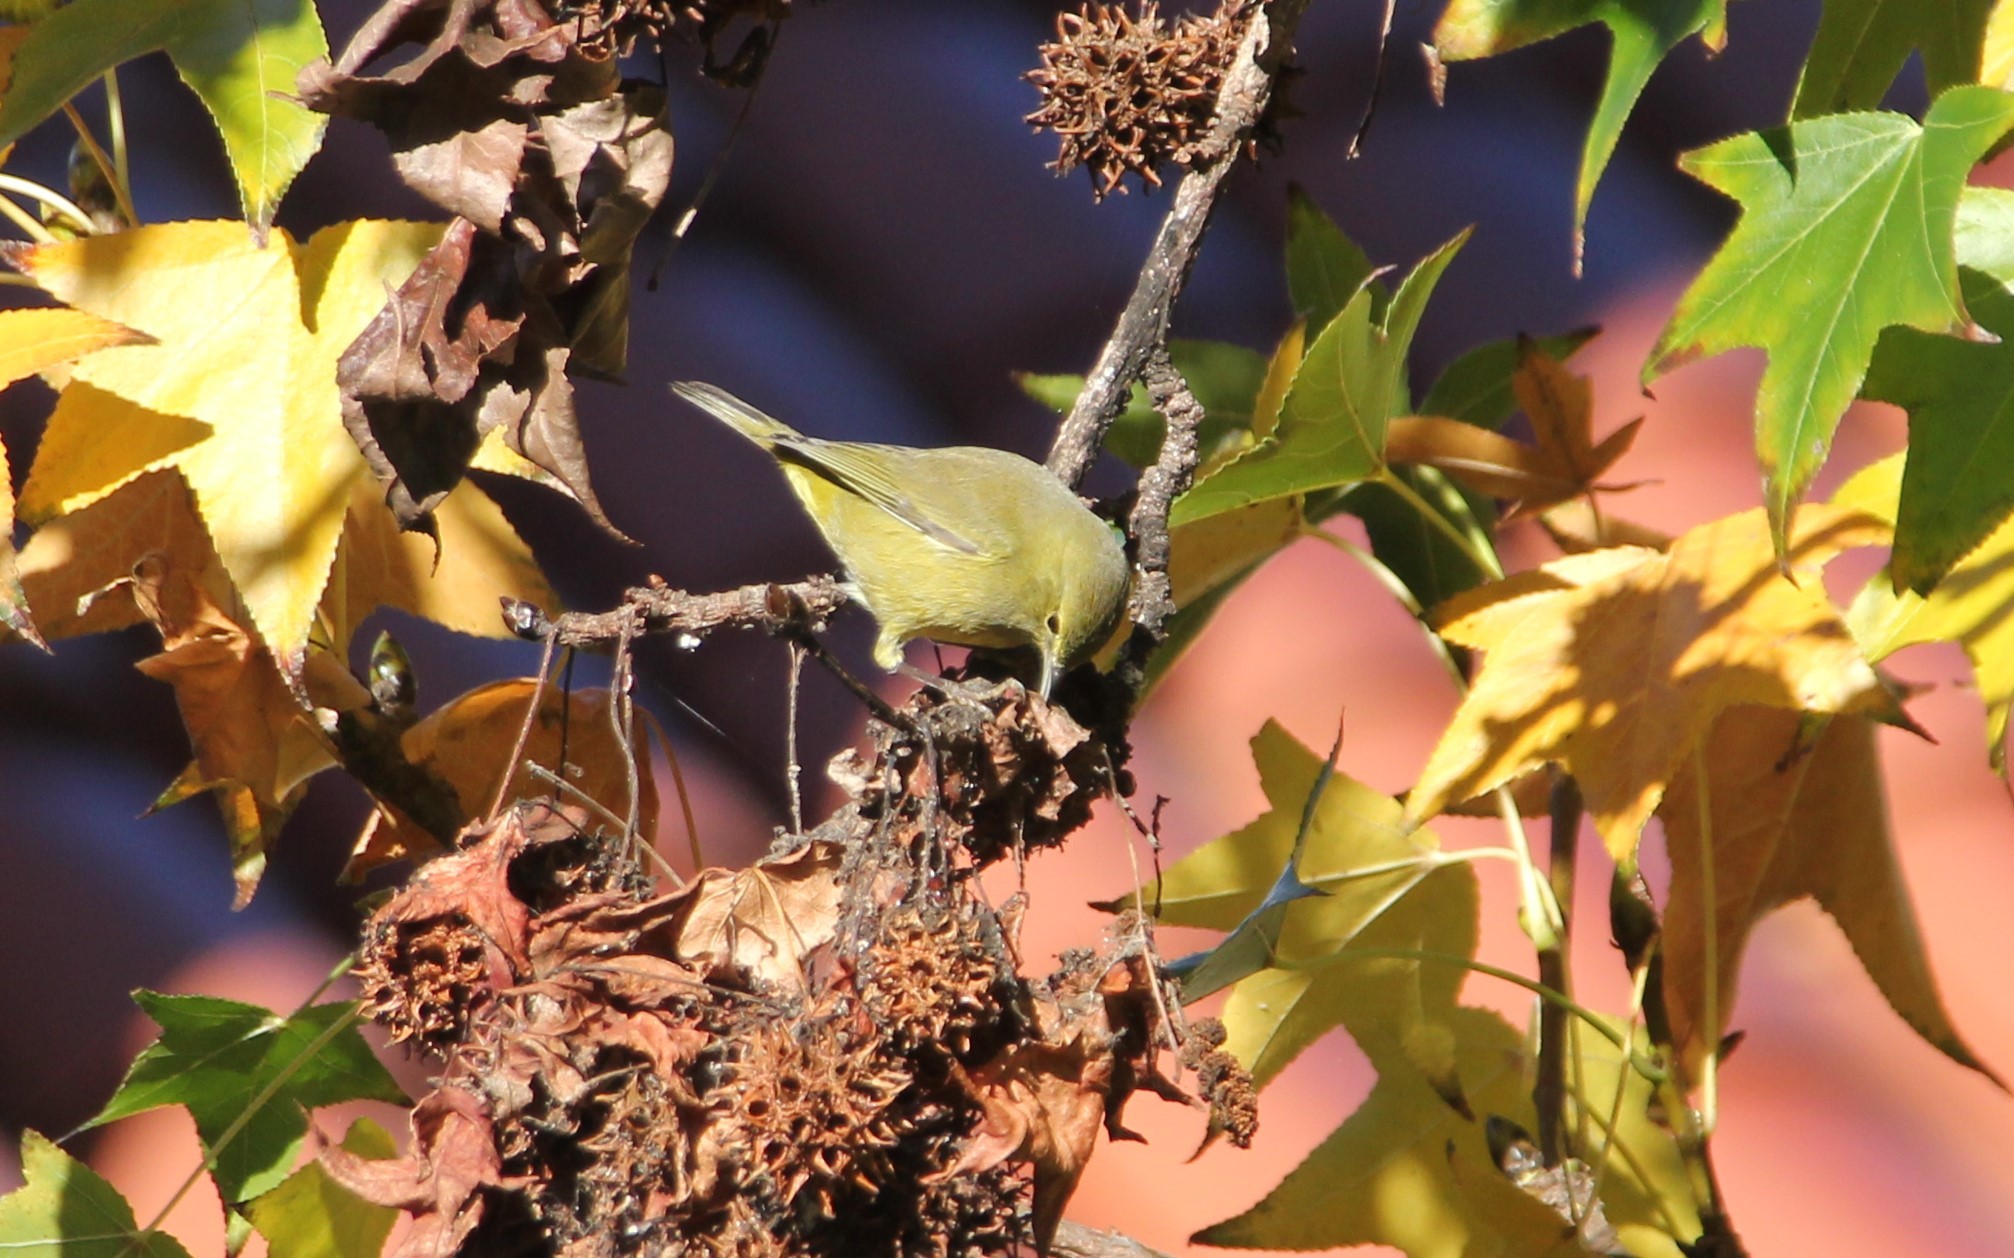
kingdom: Animalia
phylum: Chordata
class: Aves
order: Passeriformes
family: Parulidae
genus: Leiothlypis
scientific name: Leiothlypis celata
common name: Orange-crowned warbler
